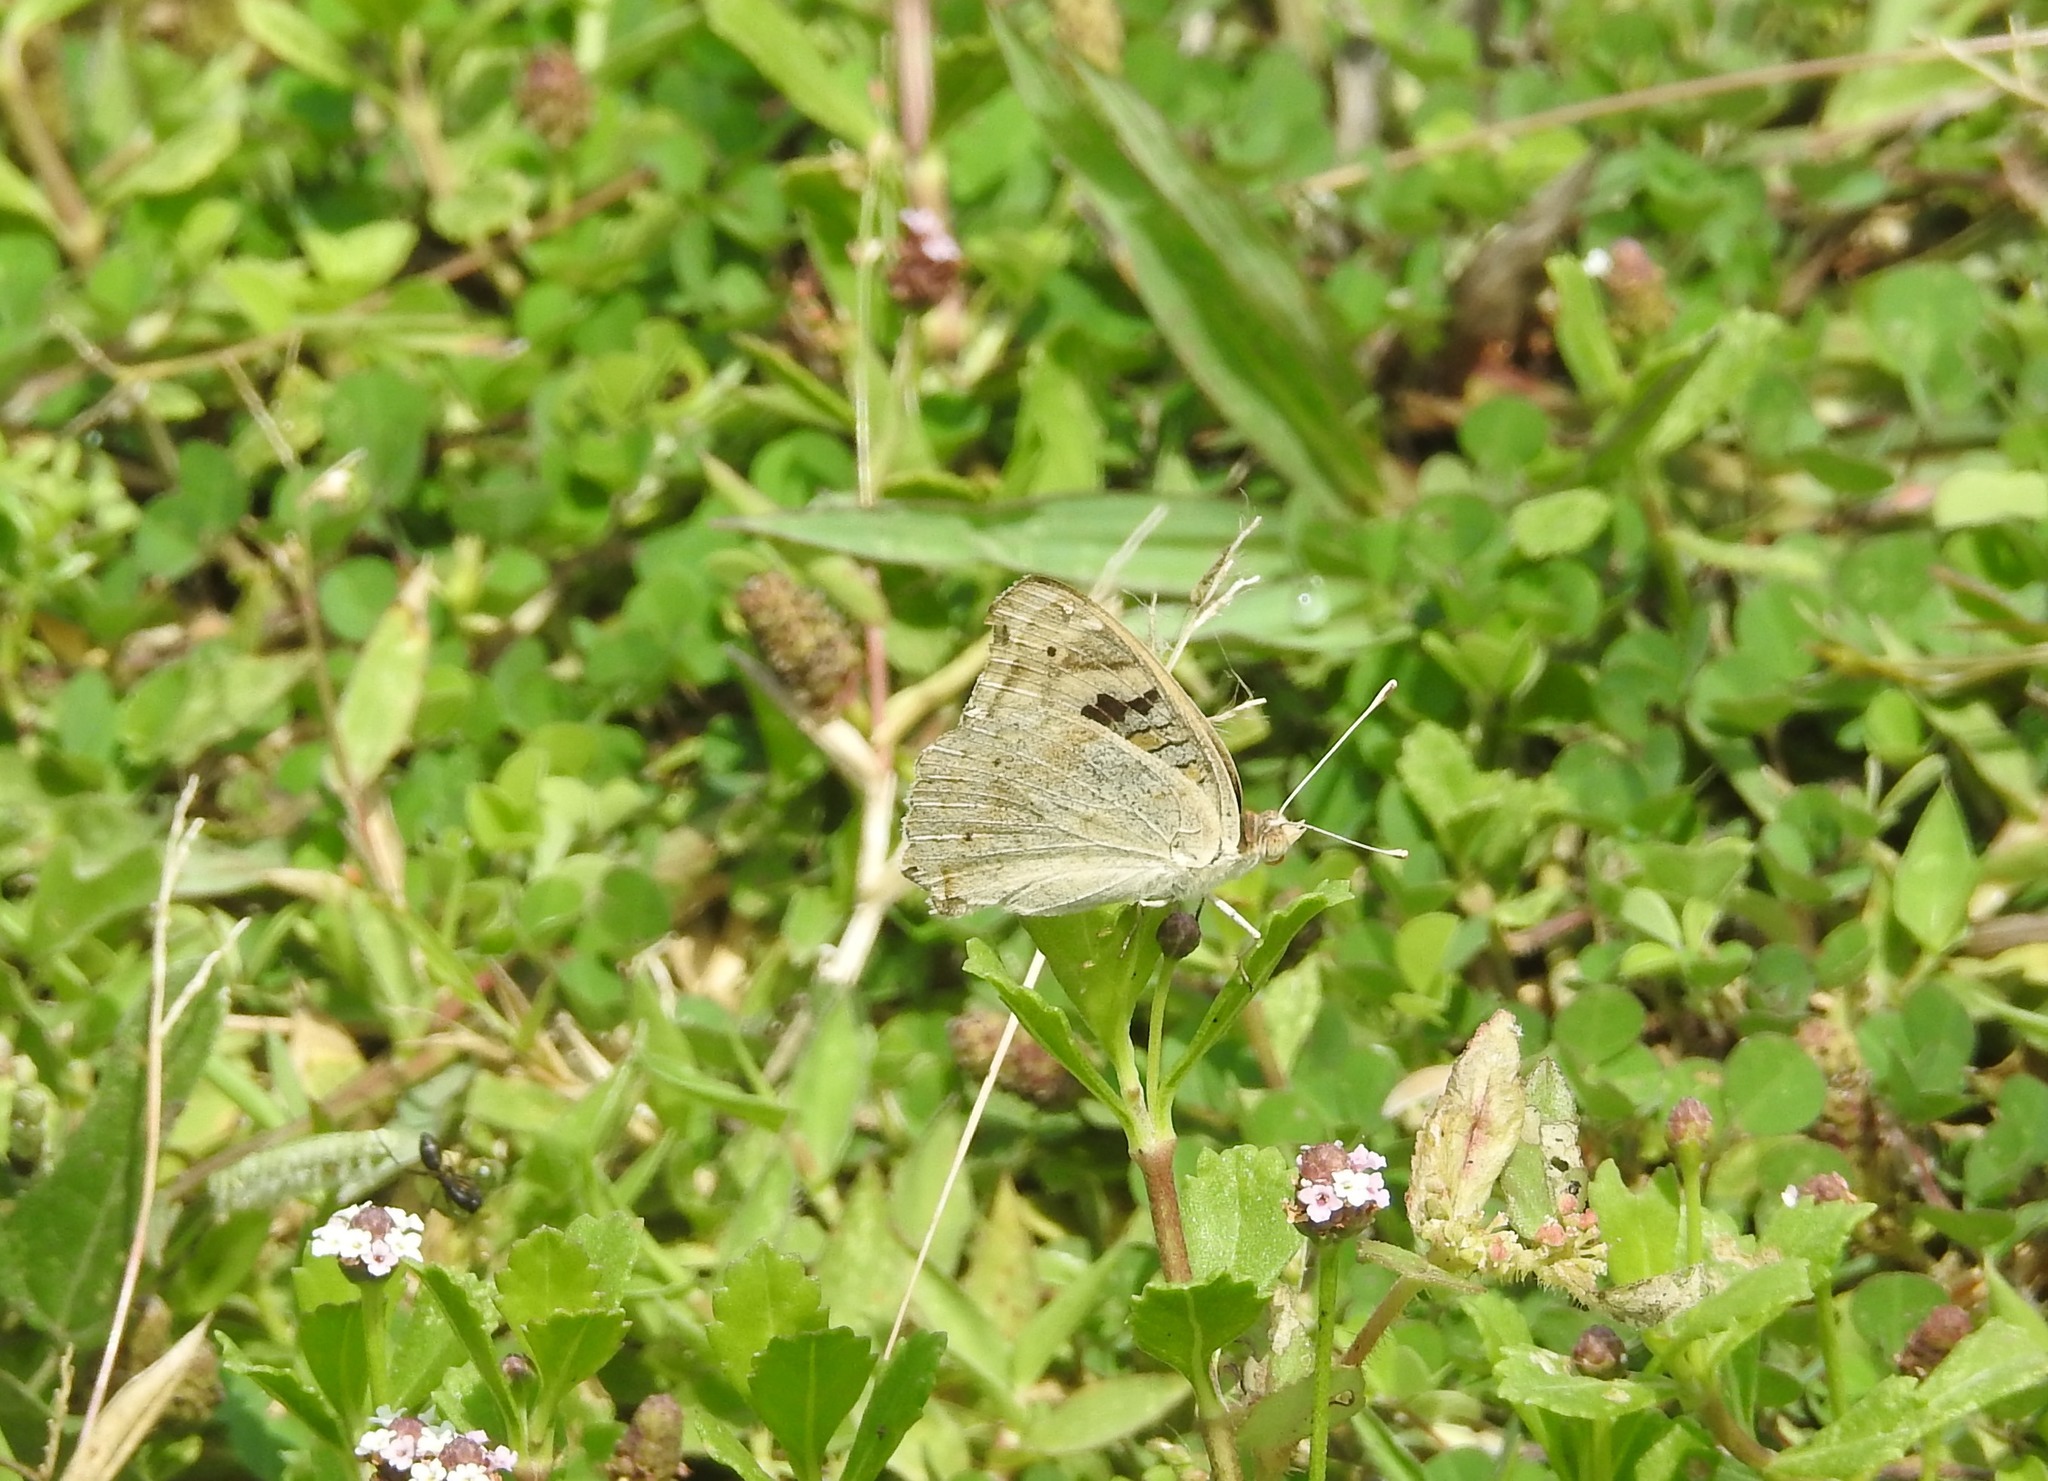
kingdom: Animalia
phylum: Arthropoda
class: Insecta
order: Lepidoptera
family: Nymphalidae
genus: Junonia
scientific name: Junonia orithya
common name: Blue pansy
